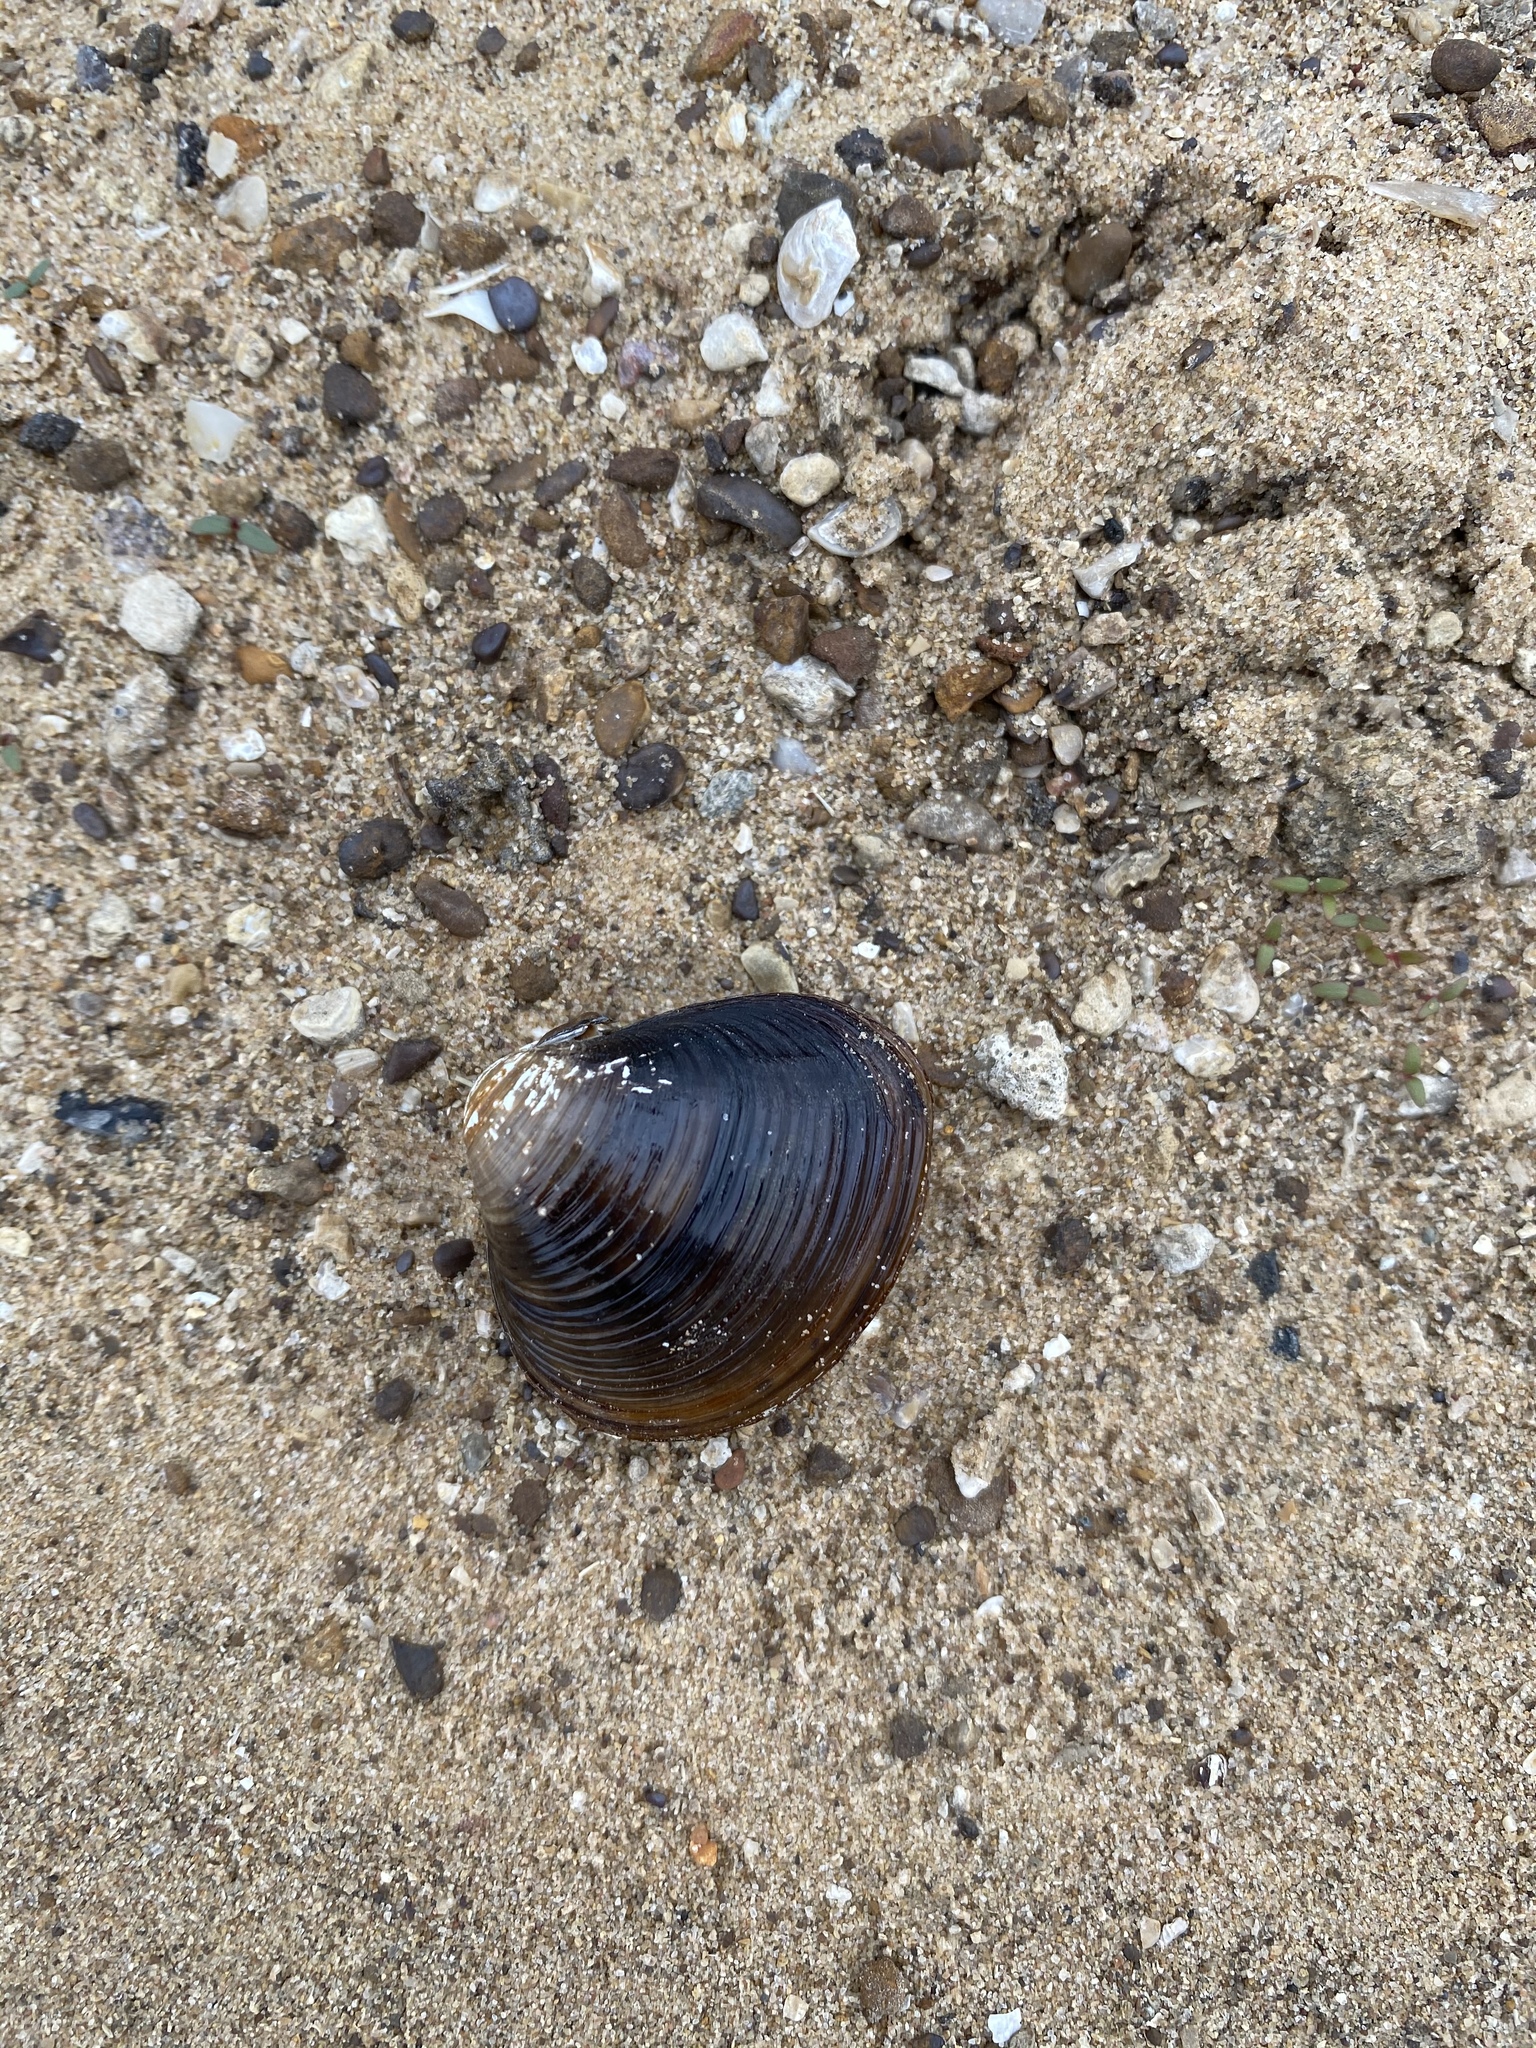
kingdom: Animalia
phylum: Mollusca
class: Bivalvia
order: Venerida
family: Cyrenidae
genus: Corbicula
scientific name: Corbicula fluminea
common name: Asian clam
